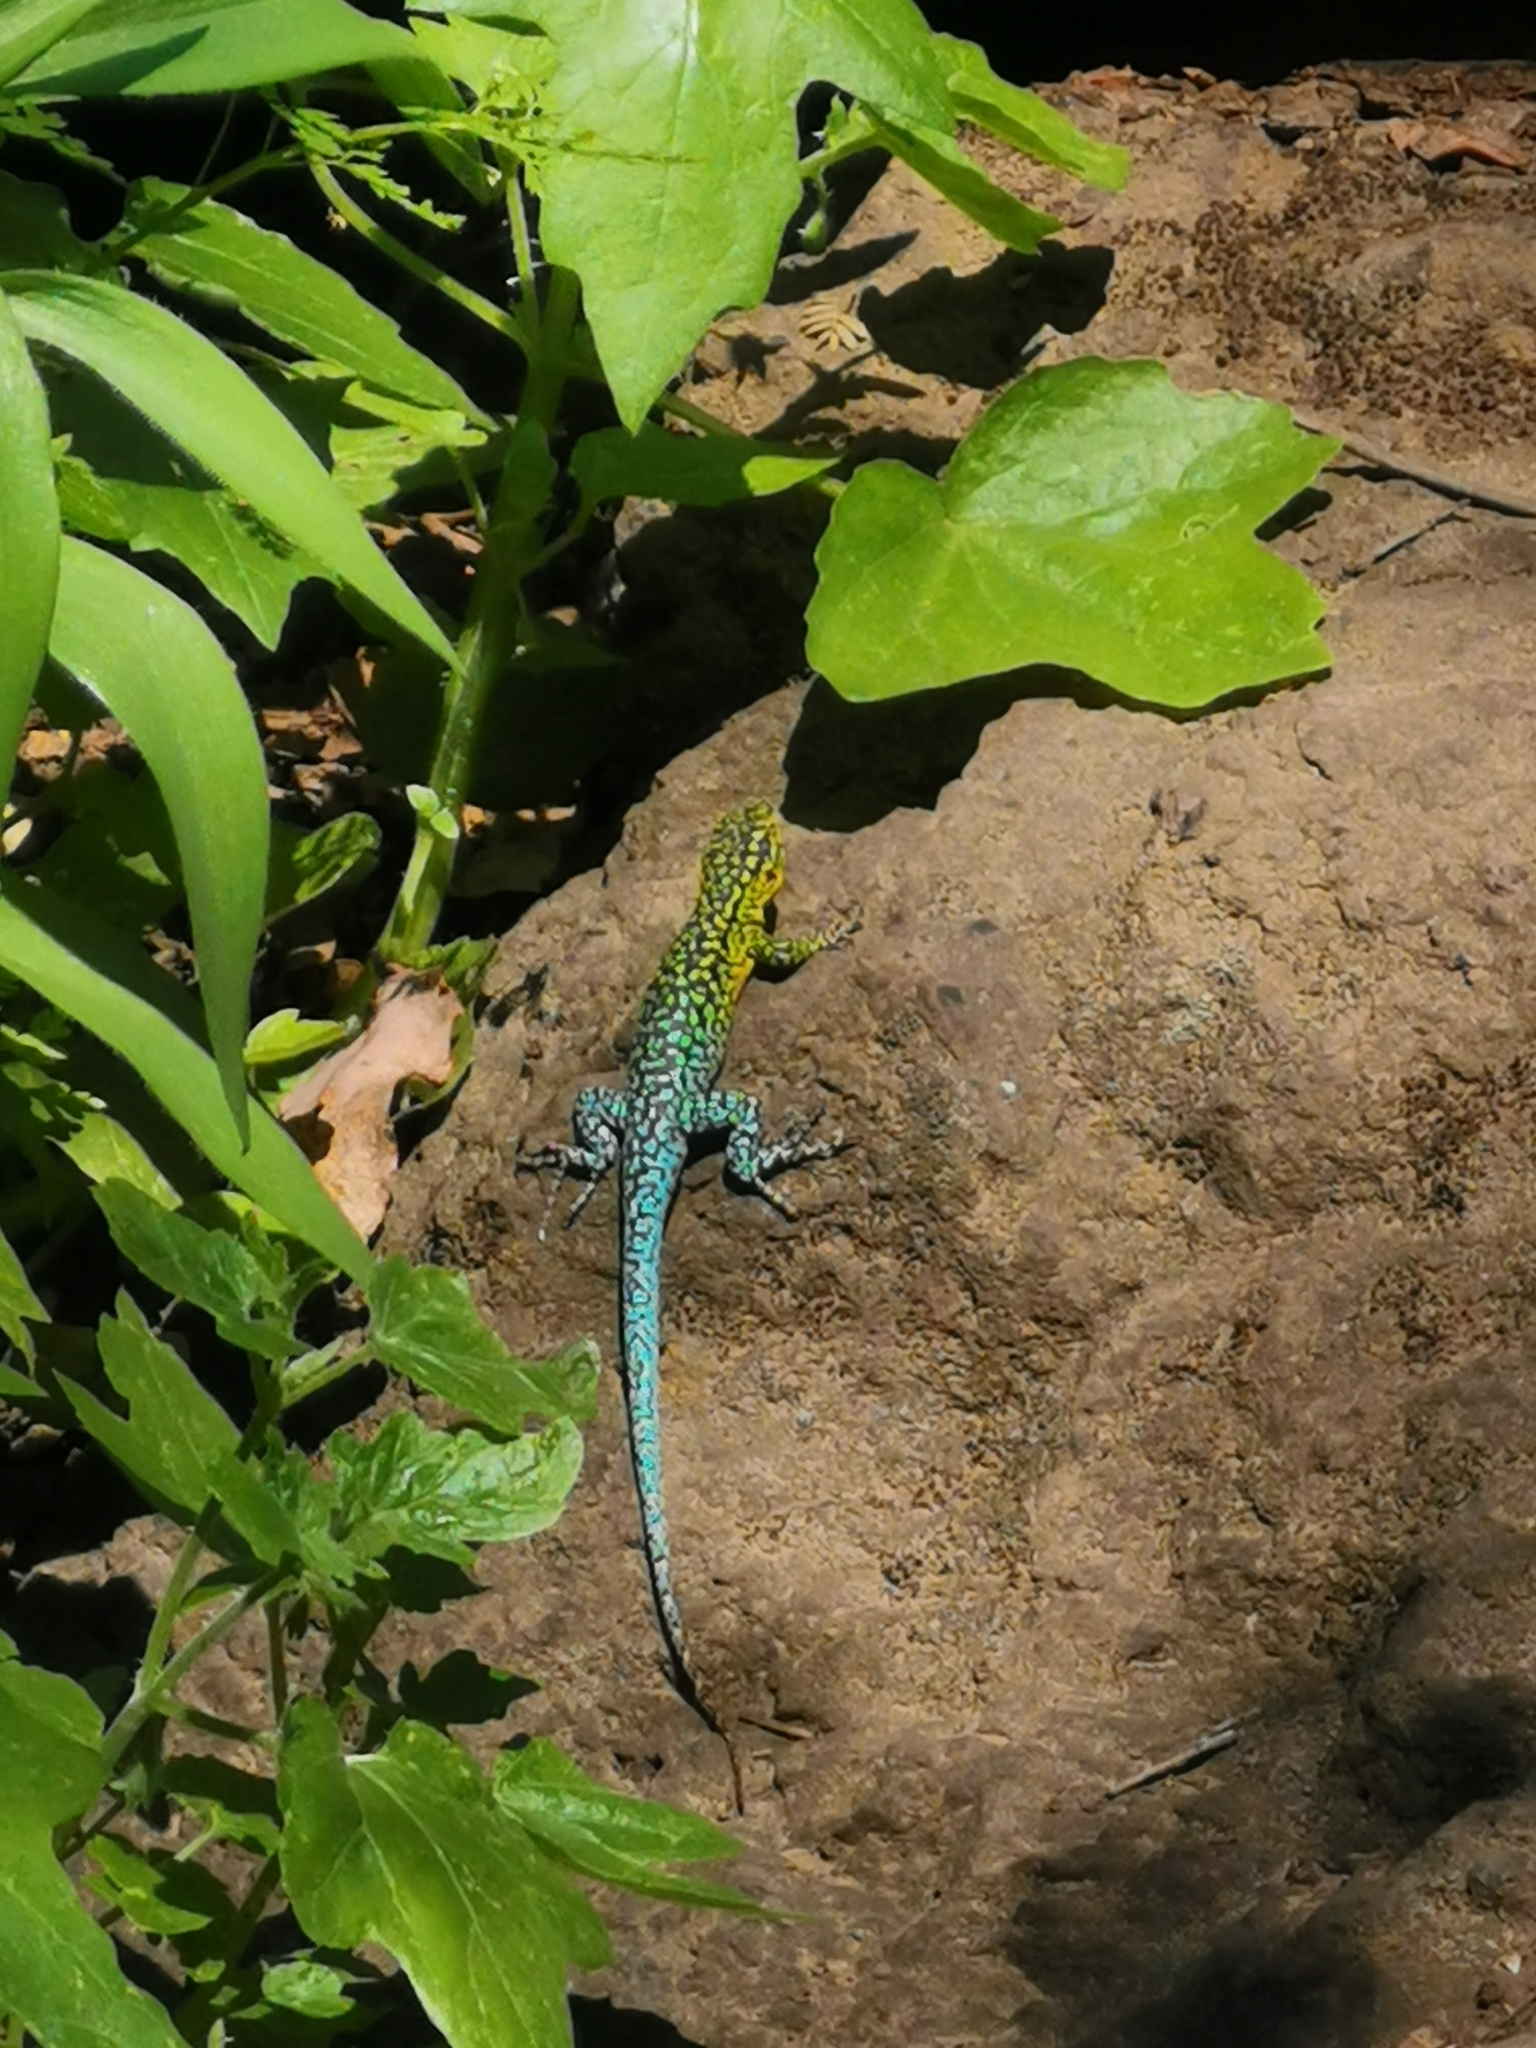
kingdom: Animalia
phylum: Chordata
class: Squamata
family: Liolaemidae
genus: Liolaemus
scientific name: Liolaemus tenuis
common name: Thin tree iguana
